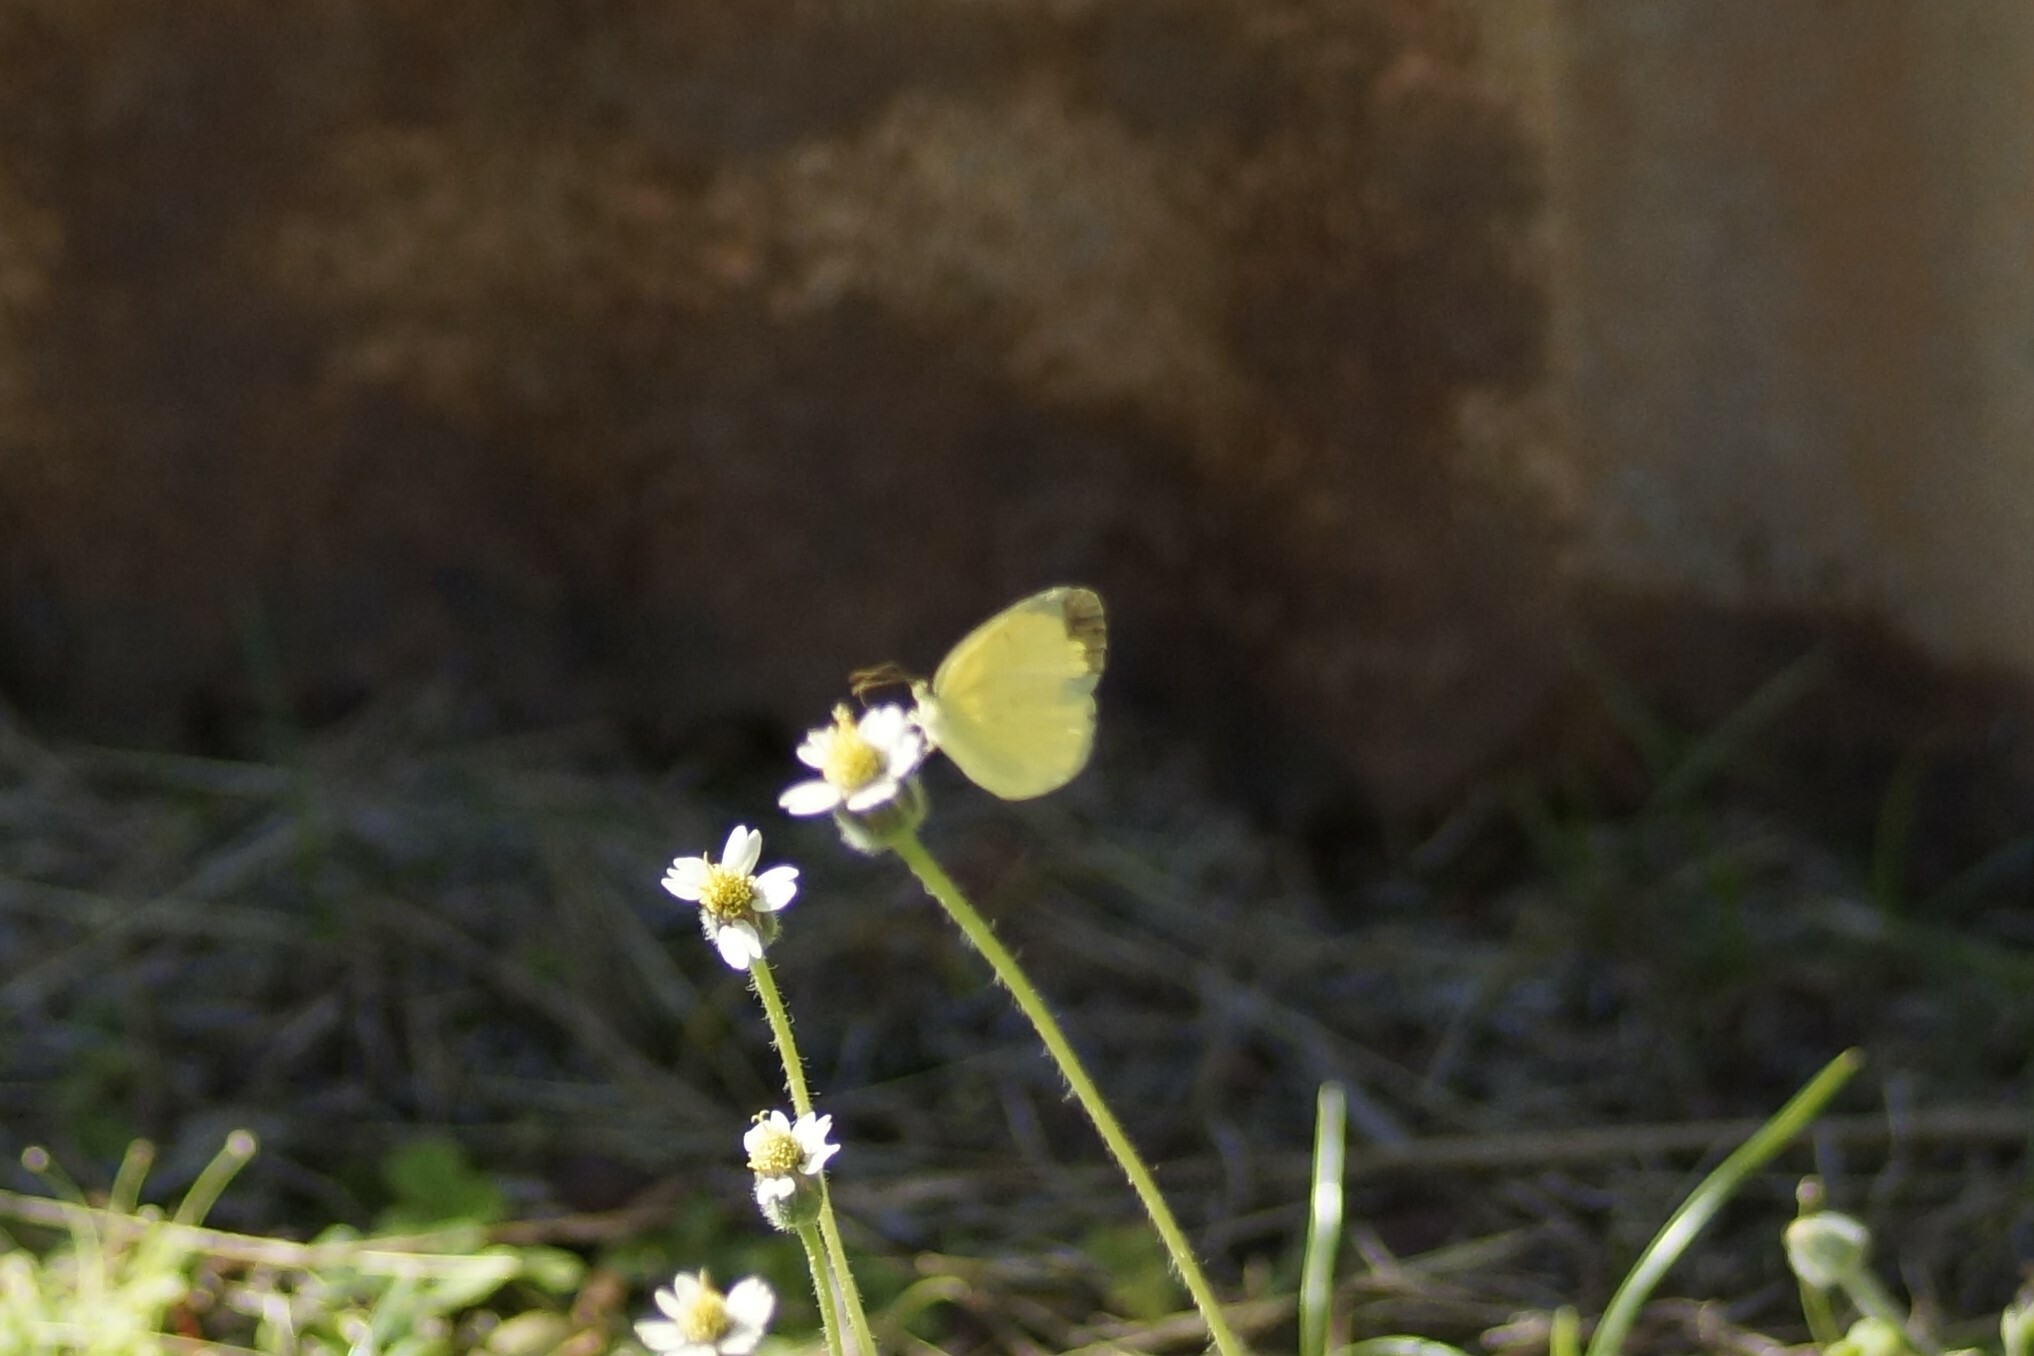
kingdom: Animalia
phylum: Arthropoda
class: Insecta
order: Lepidoptera
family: Pieridae
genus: Eurema
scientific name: Eurema hecabe
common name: Pale grass yellow
